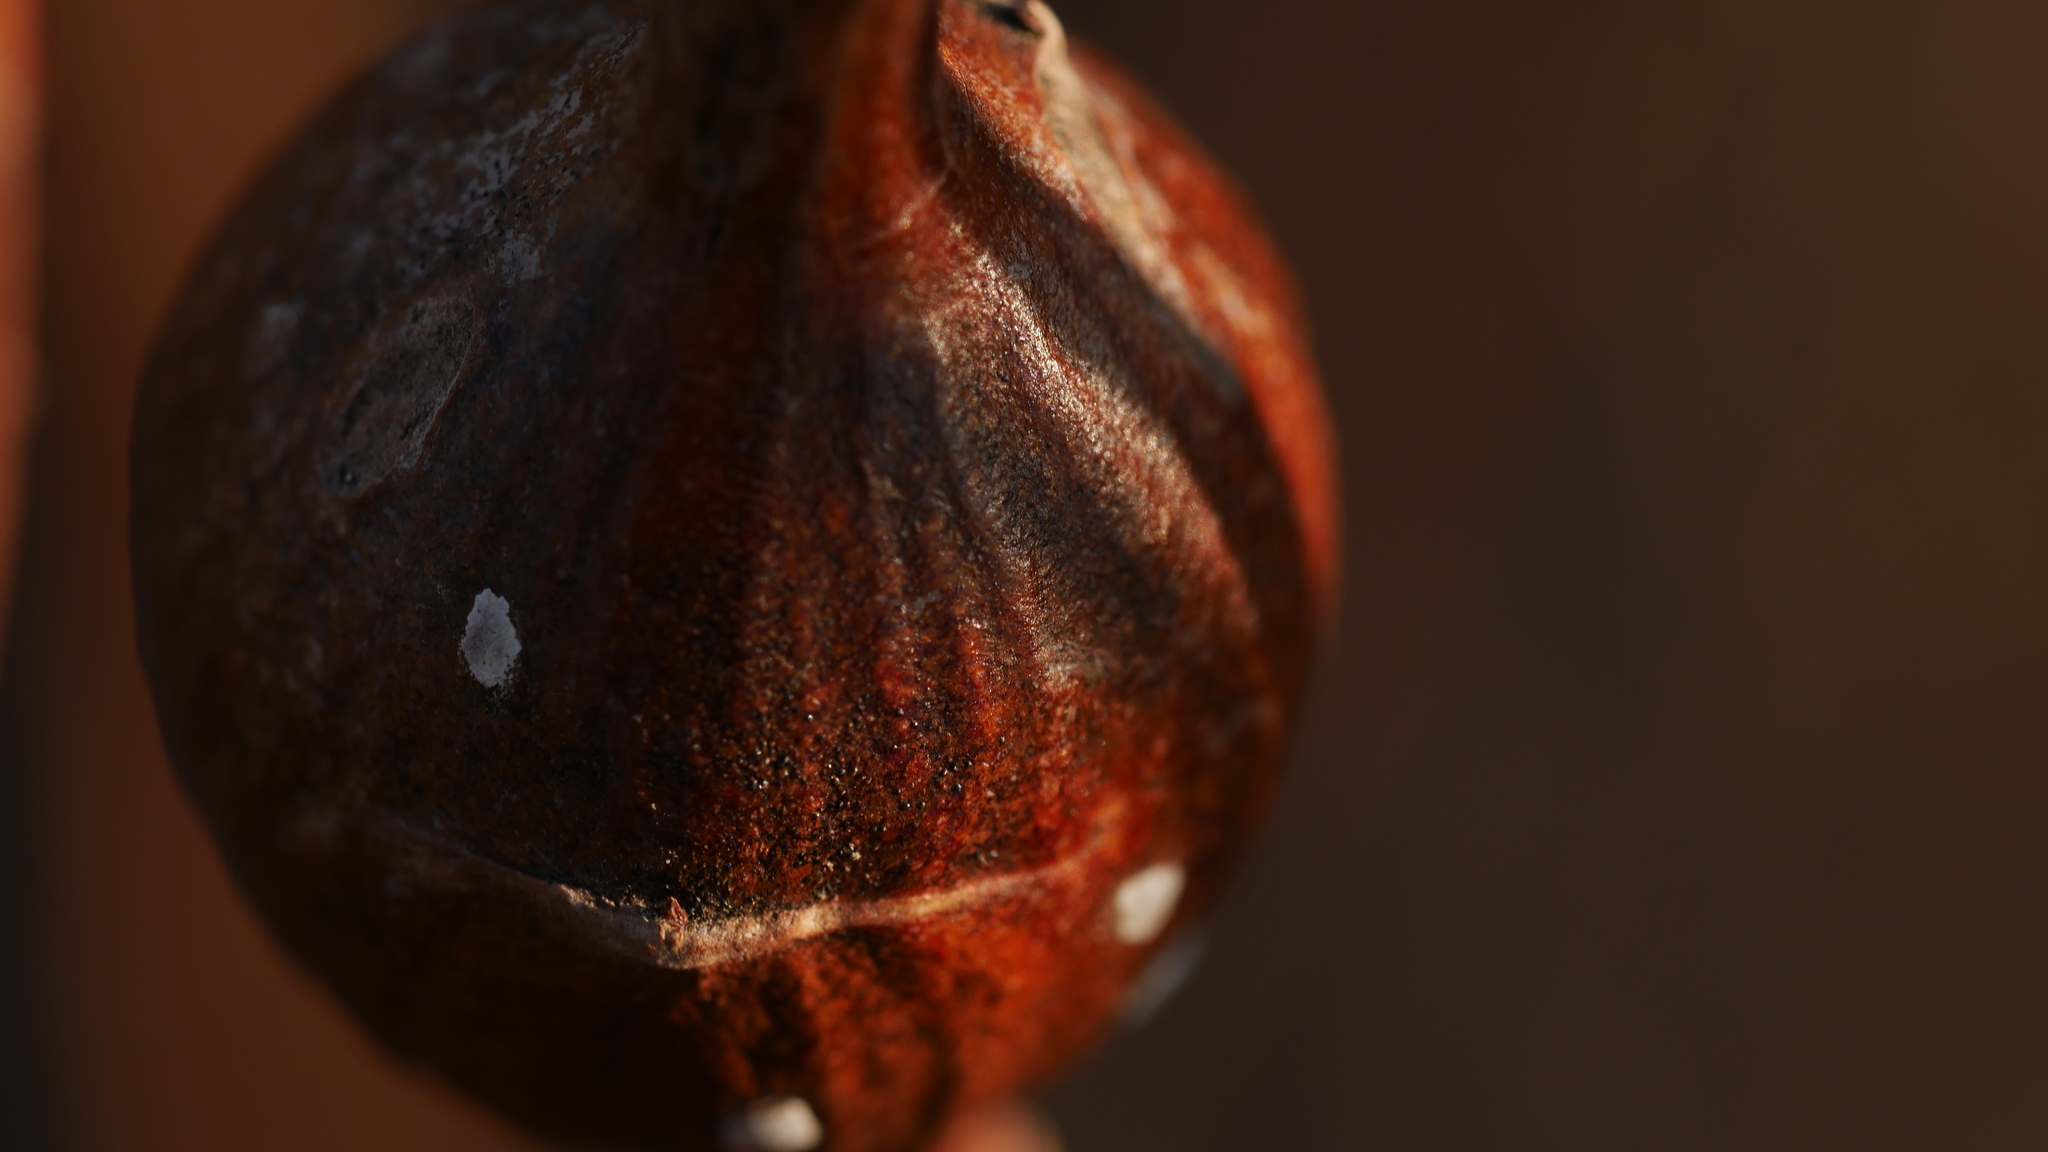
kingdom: Animalia
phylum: Arthropoda
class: Insecta
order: Diptera
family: Tephritidae
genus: Eurosta
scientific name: Eurosta solidaginis
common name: Goldenrod gall fly
